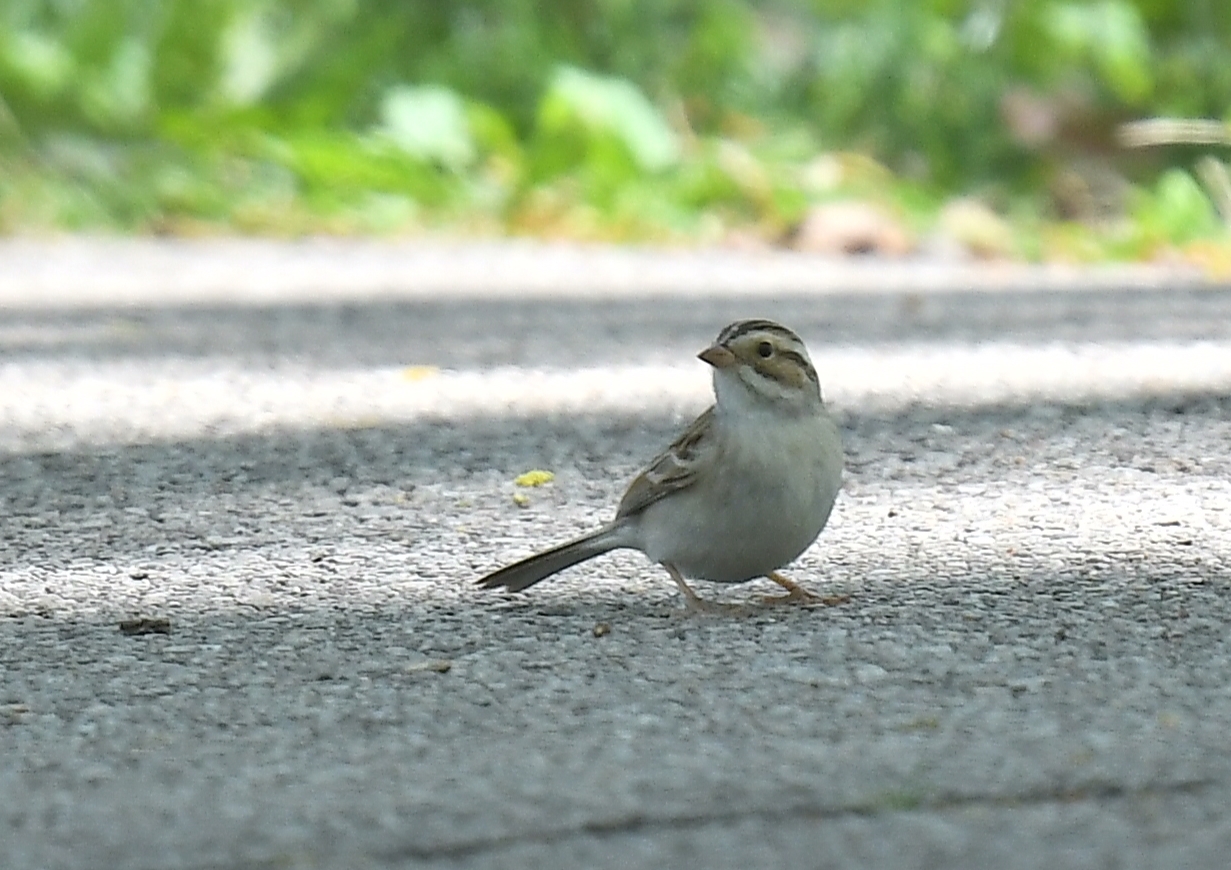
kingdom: Animalia
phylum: Chordata
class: Aves
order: Passeriformes
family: Passerellidae
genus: Spizella
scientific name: Spizella pallida
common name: Clay-colored sparrow
